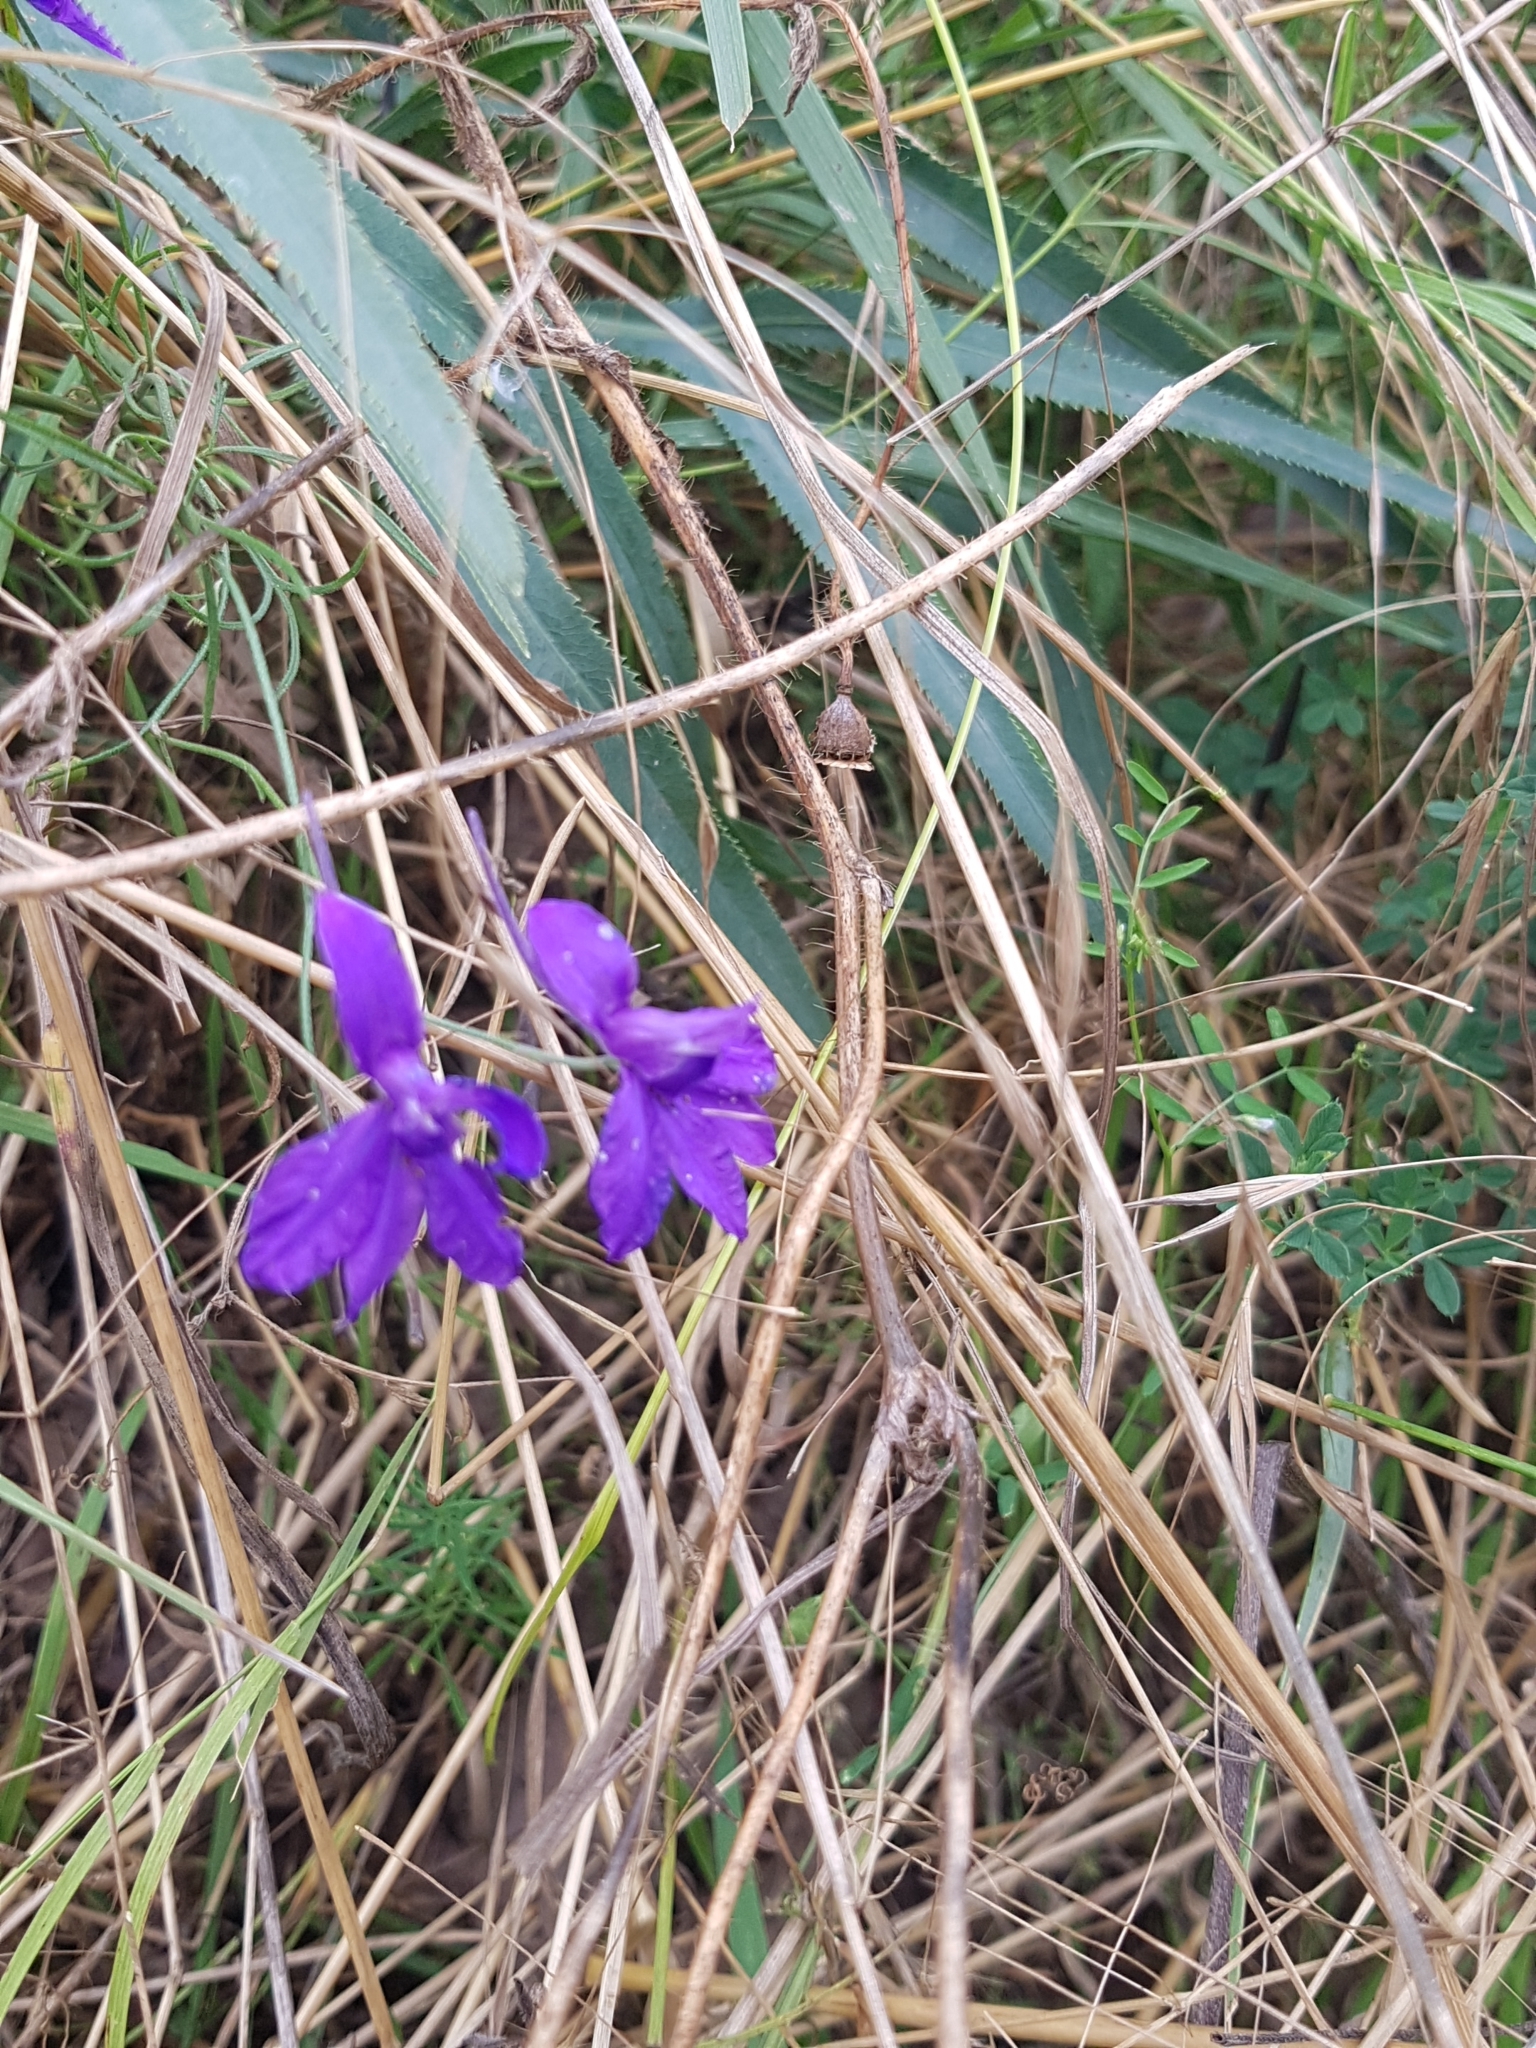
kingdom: Plantae
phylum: Tracheophyta
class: Magnoliopsida
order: Ranunculales
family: Ranunculaceae
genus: Delphinium
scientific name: Delphinium consolida
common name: Branching larkspur
